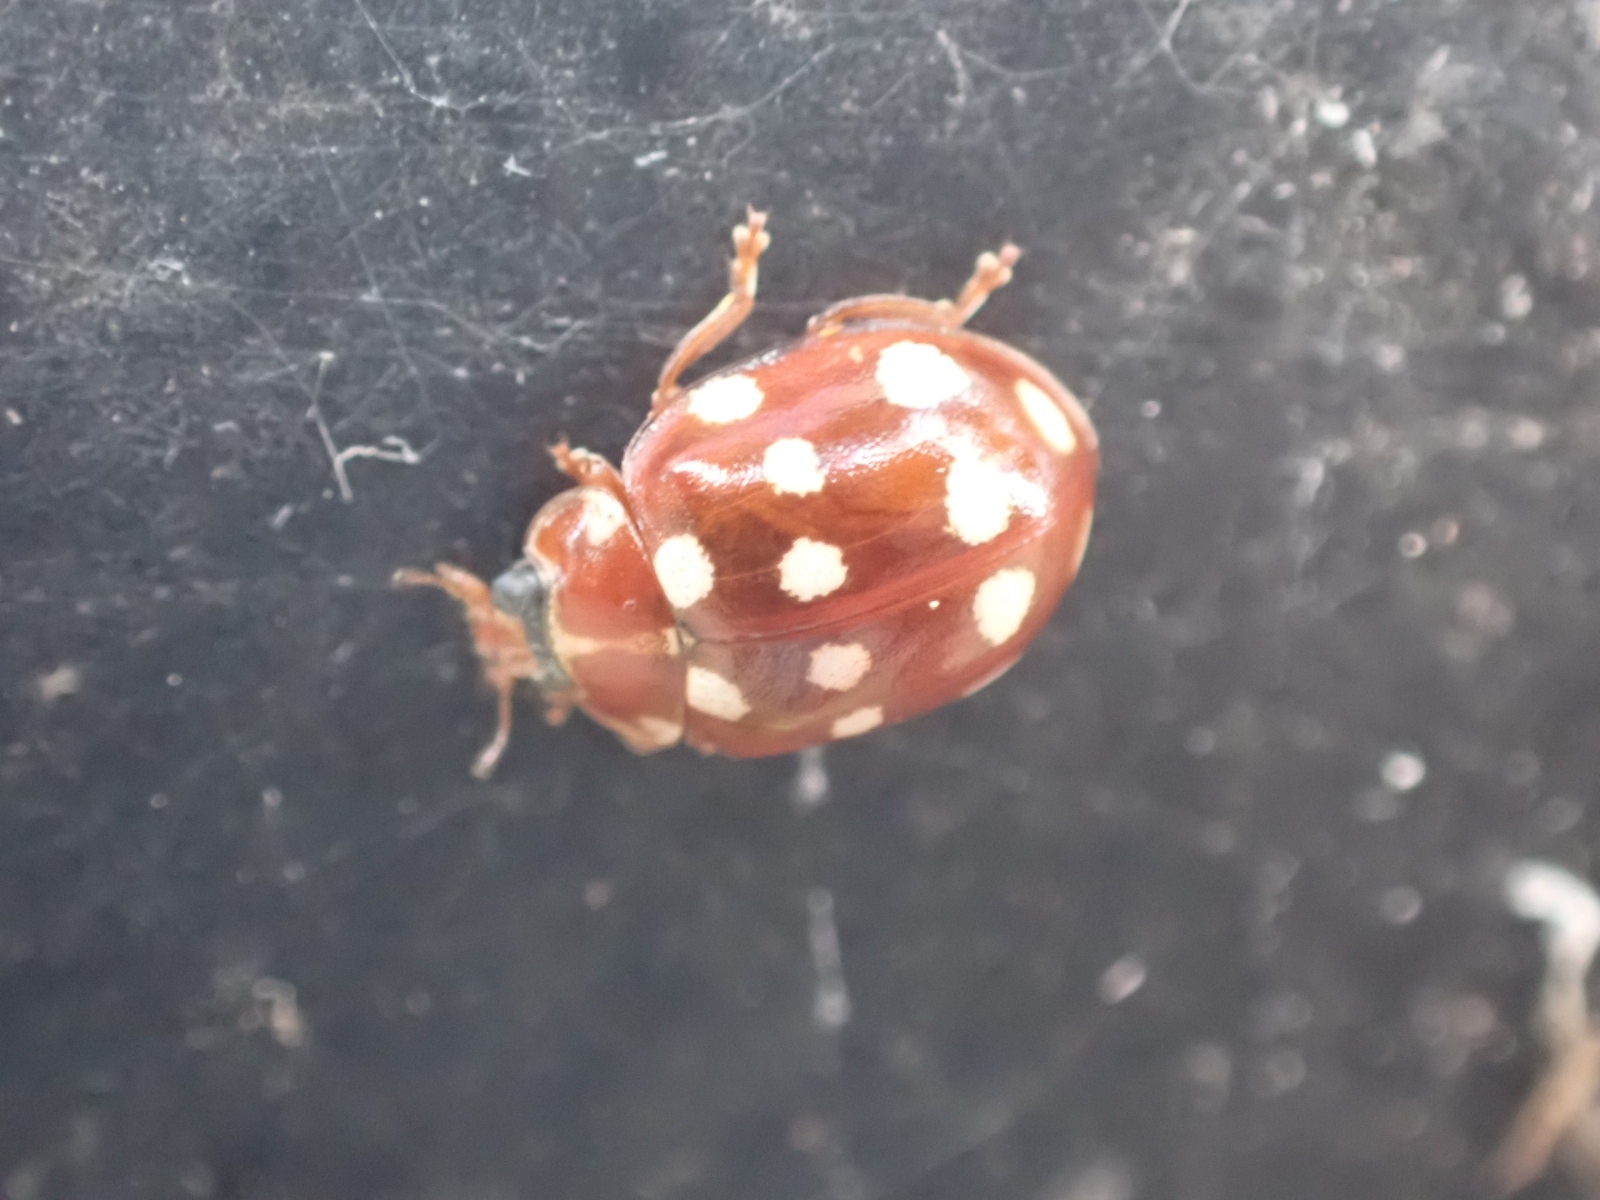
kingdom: Animalia
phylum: Arthropoda
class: Insecta
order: Coleoptera
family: Coccinellidae
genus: Calvia
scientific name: Calvia quatuordecimguttata
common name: Cream-spot ladybird
